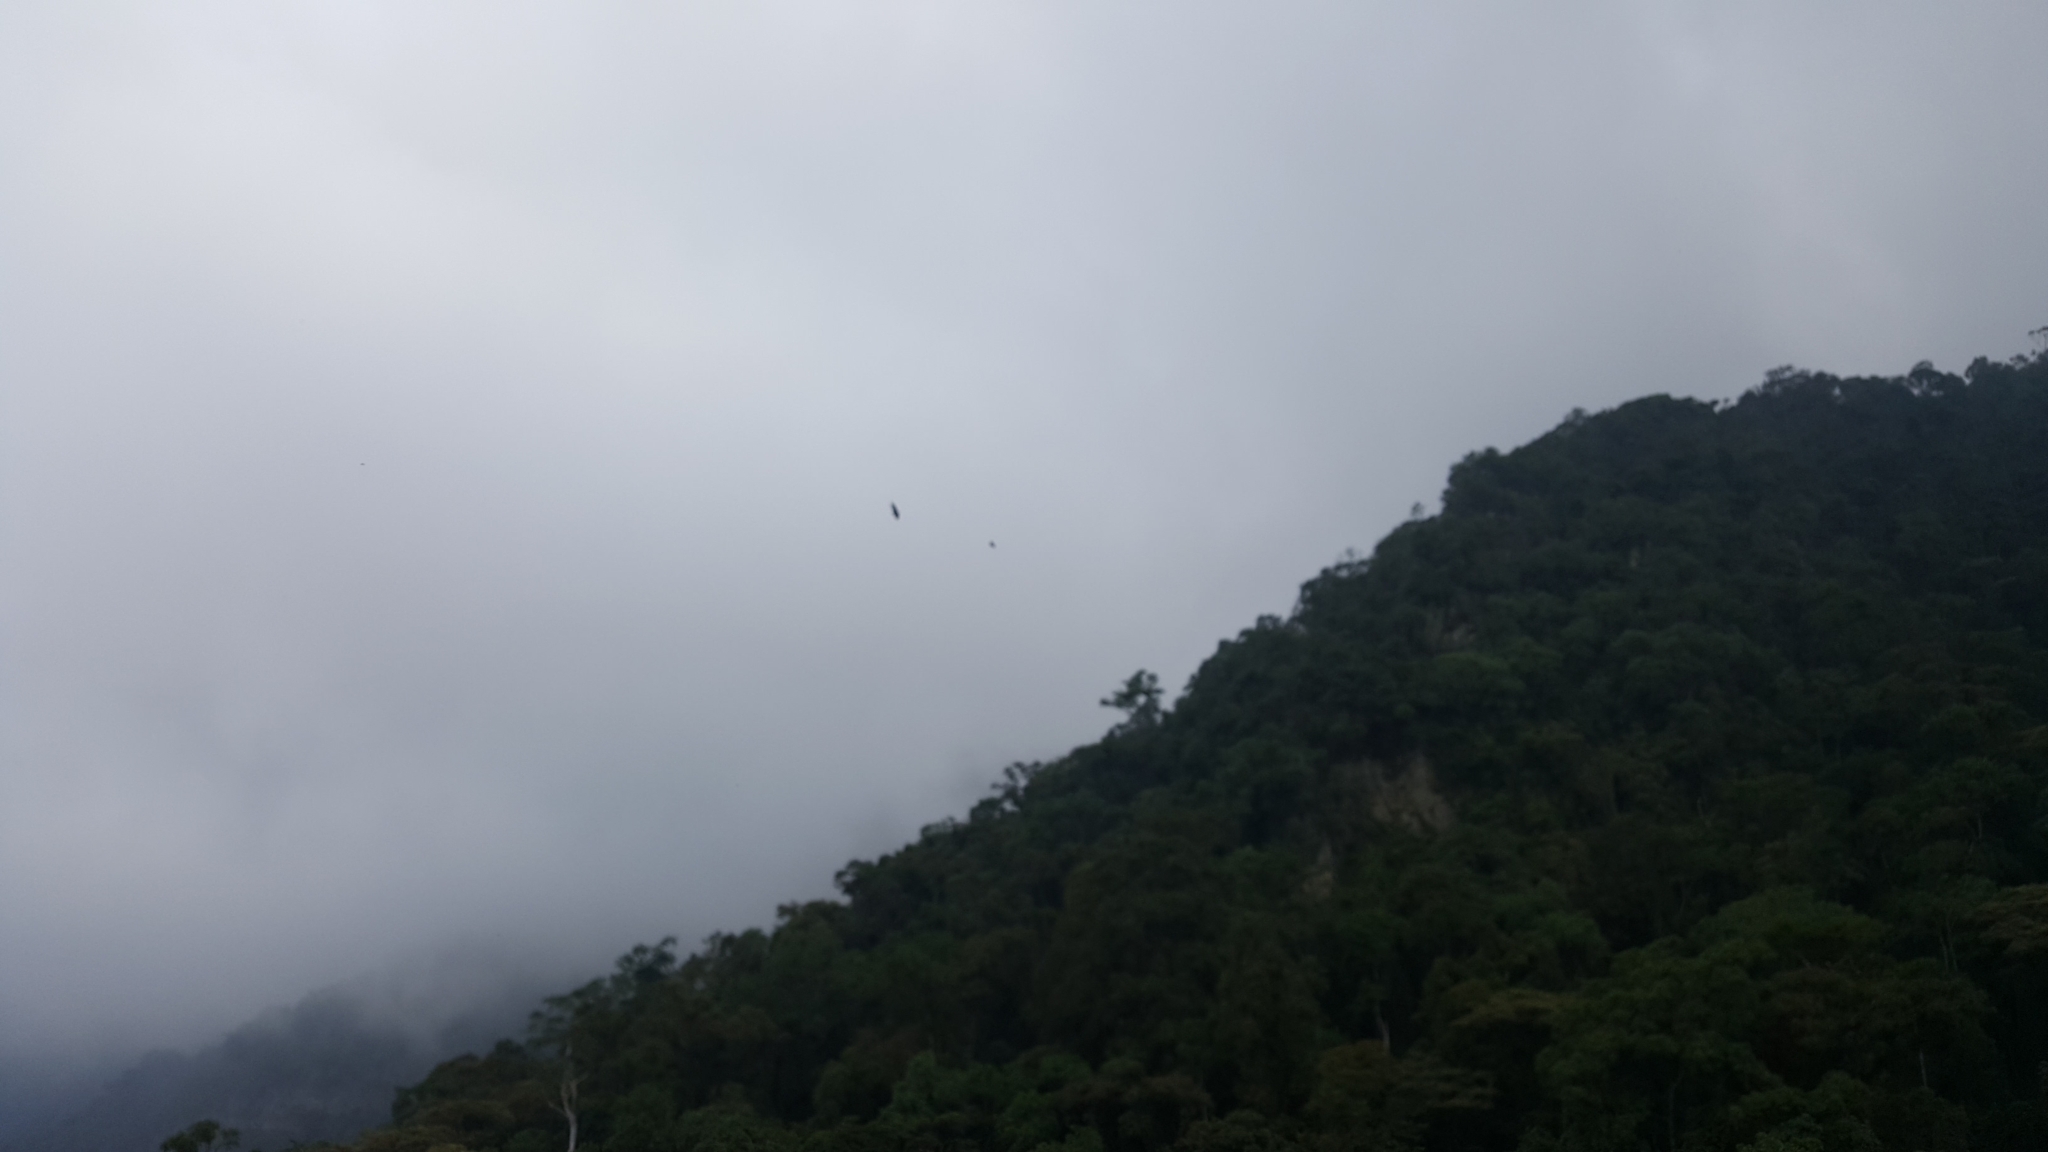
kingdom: Animalia
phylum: Chordata
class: Aves
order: Accipitriformes
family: Cathartidae
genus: Coragyps
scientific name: Coragyps atratus
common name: Black vulture
